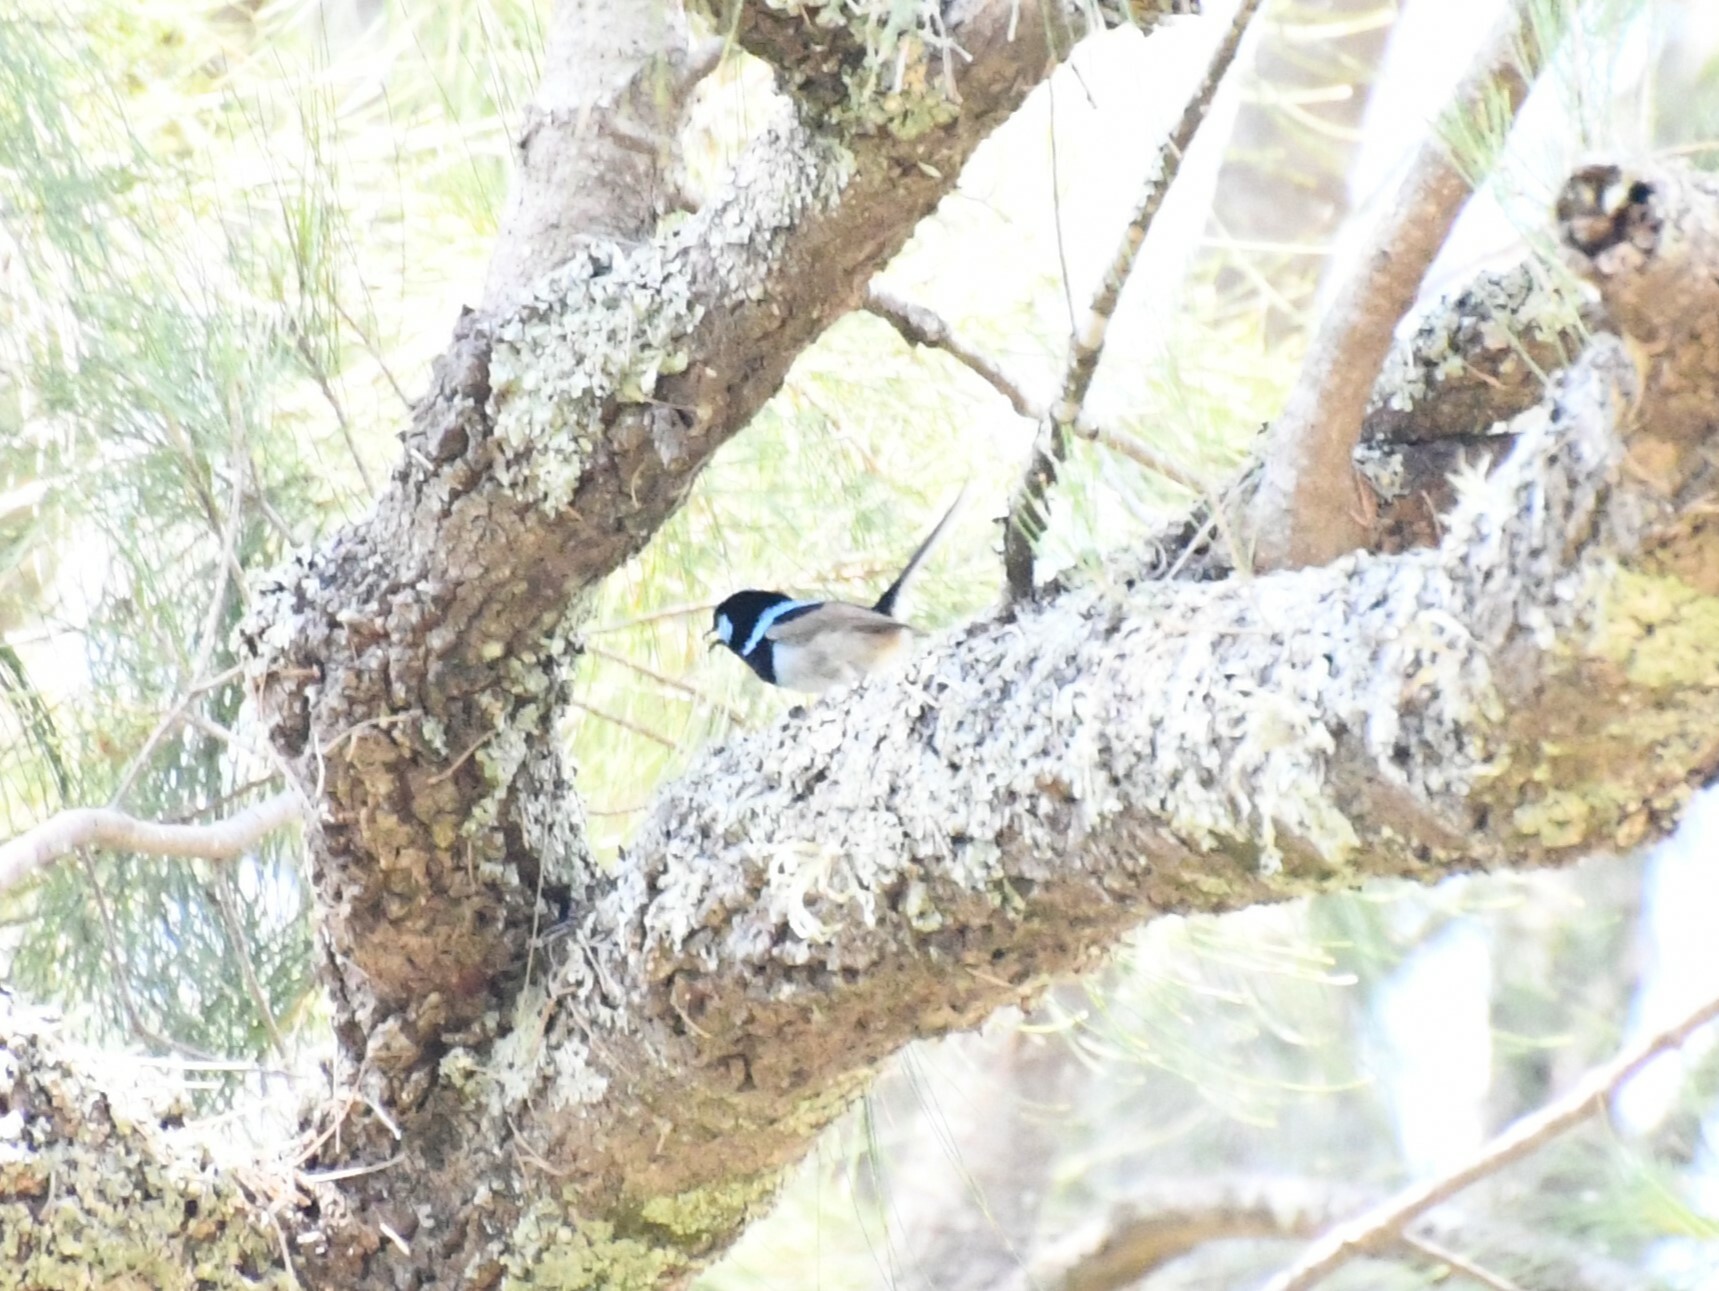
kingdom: Animalia
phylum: Chordata
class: Aves
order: Passeriformes
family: Maluridae
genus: Malurus
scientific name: Malurus cyaneus
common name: Superb fairywren
